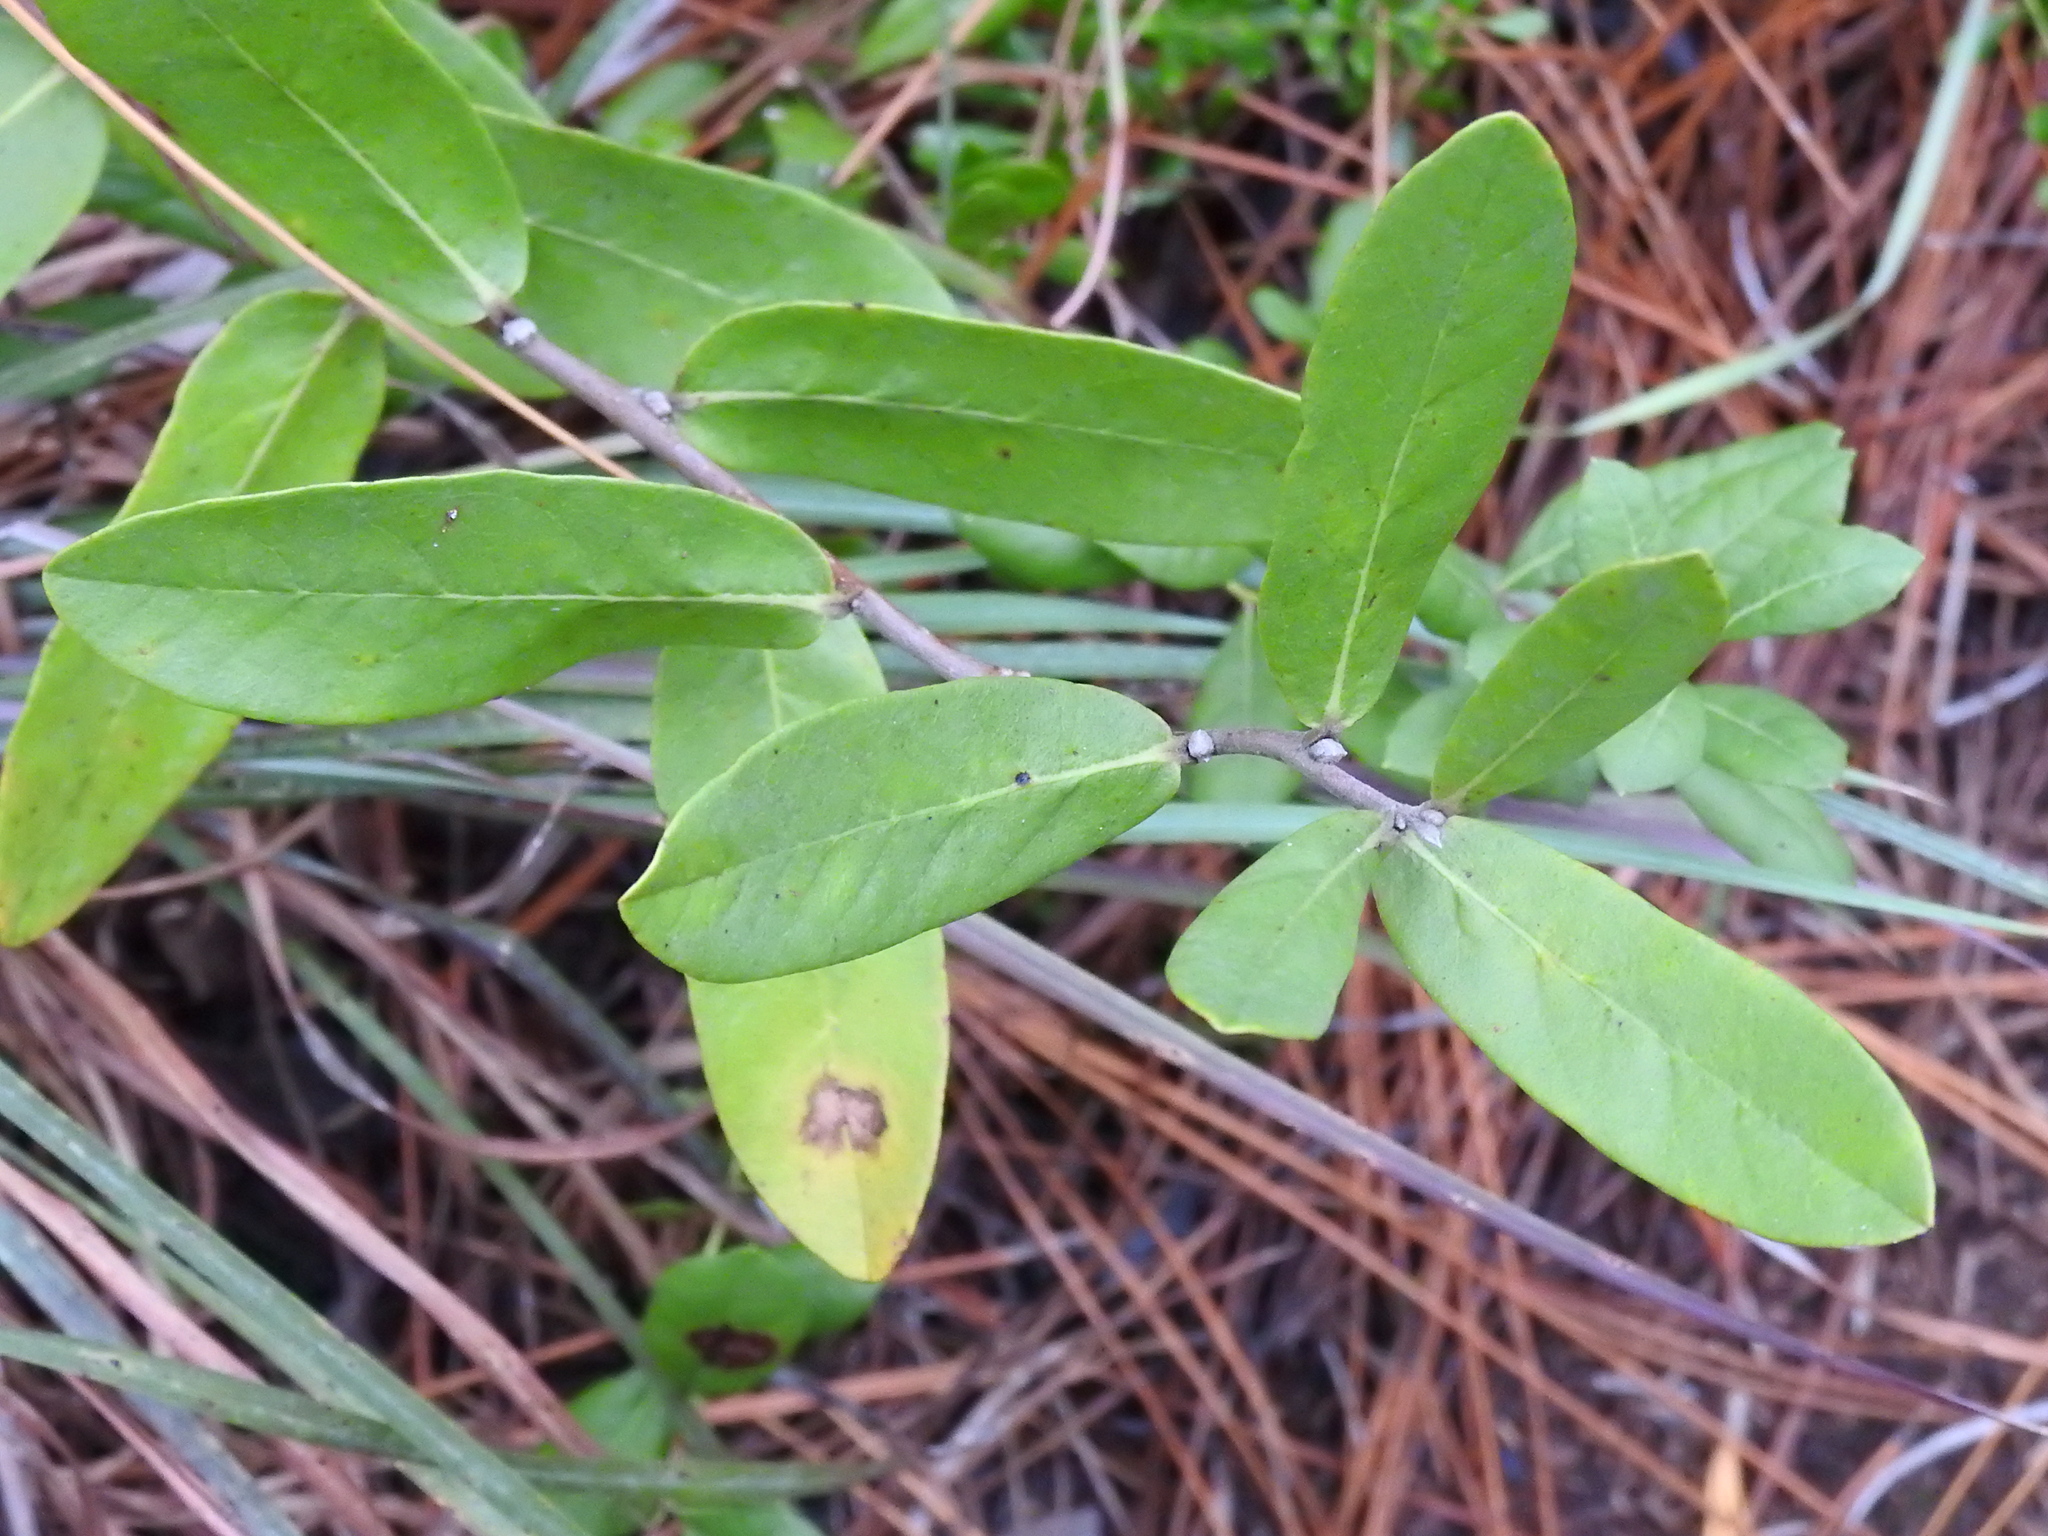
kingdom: Plantae
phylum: Tracheophyta
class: Magnoliopsida
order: Magnoliales
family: Annonaceae
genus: Asimina
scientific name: Asimina reticulata
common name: Flag pawpaw
